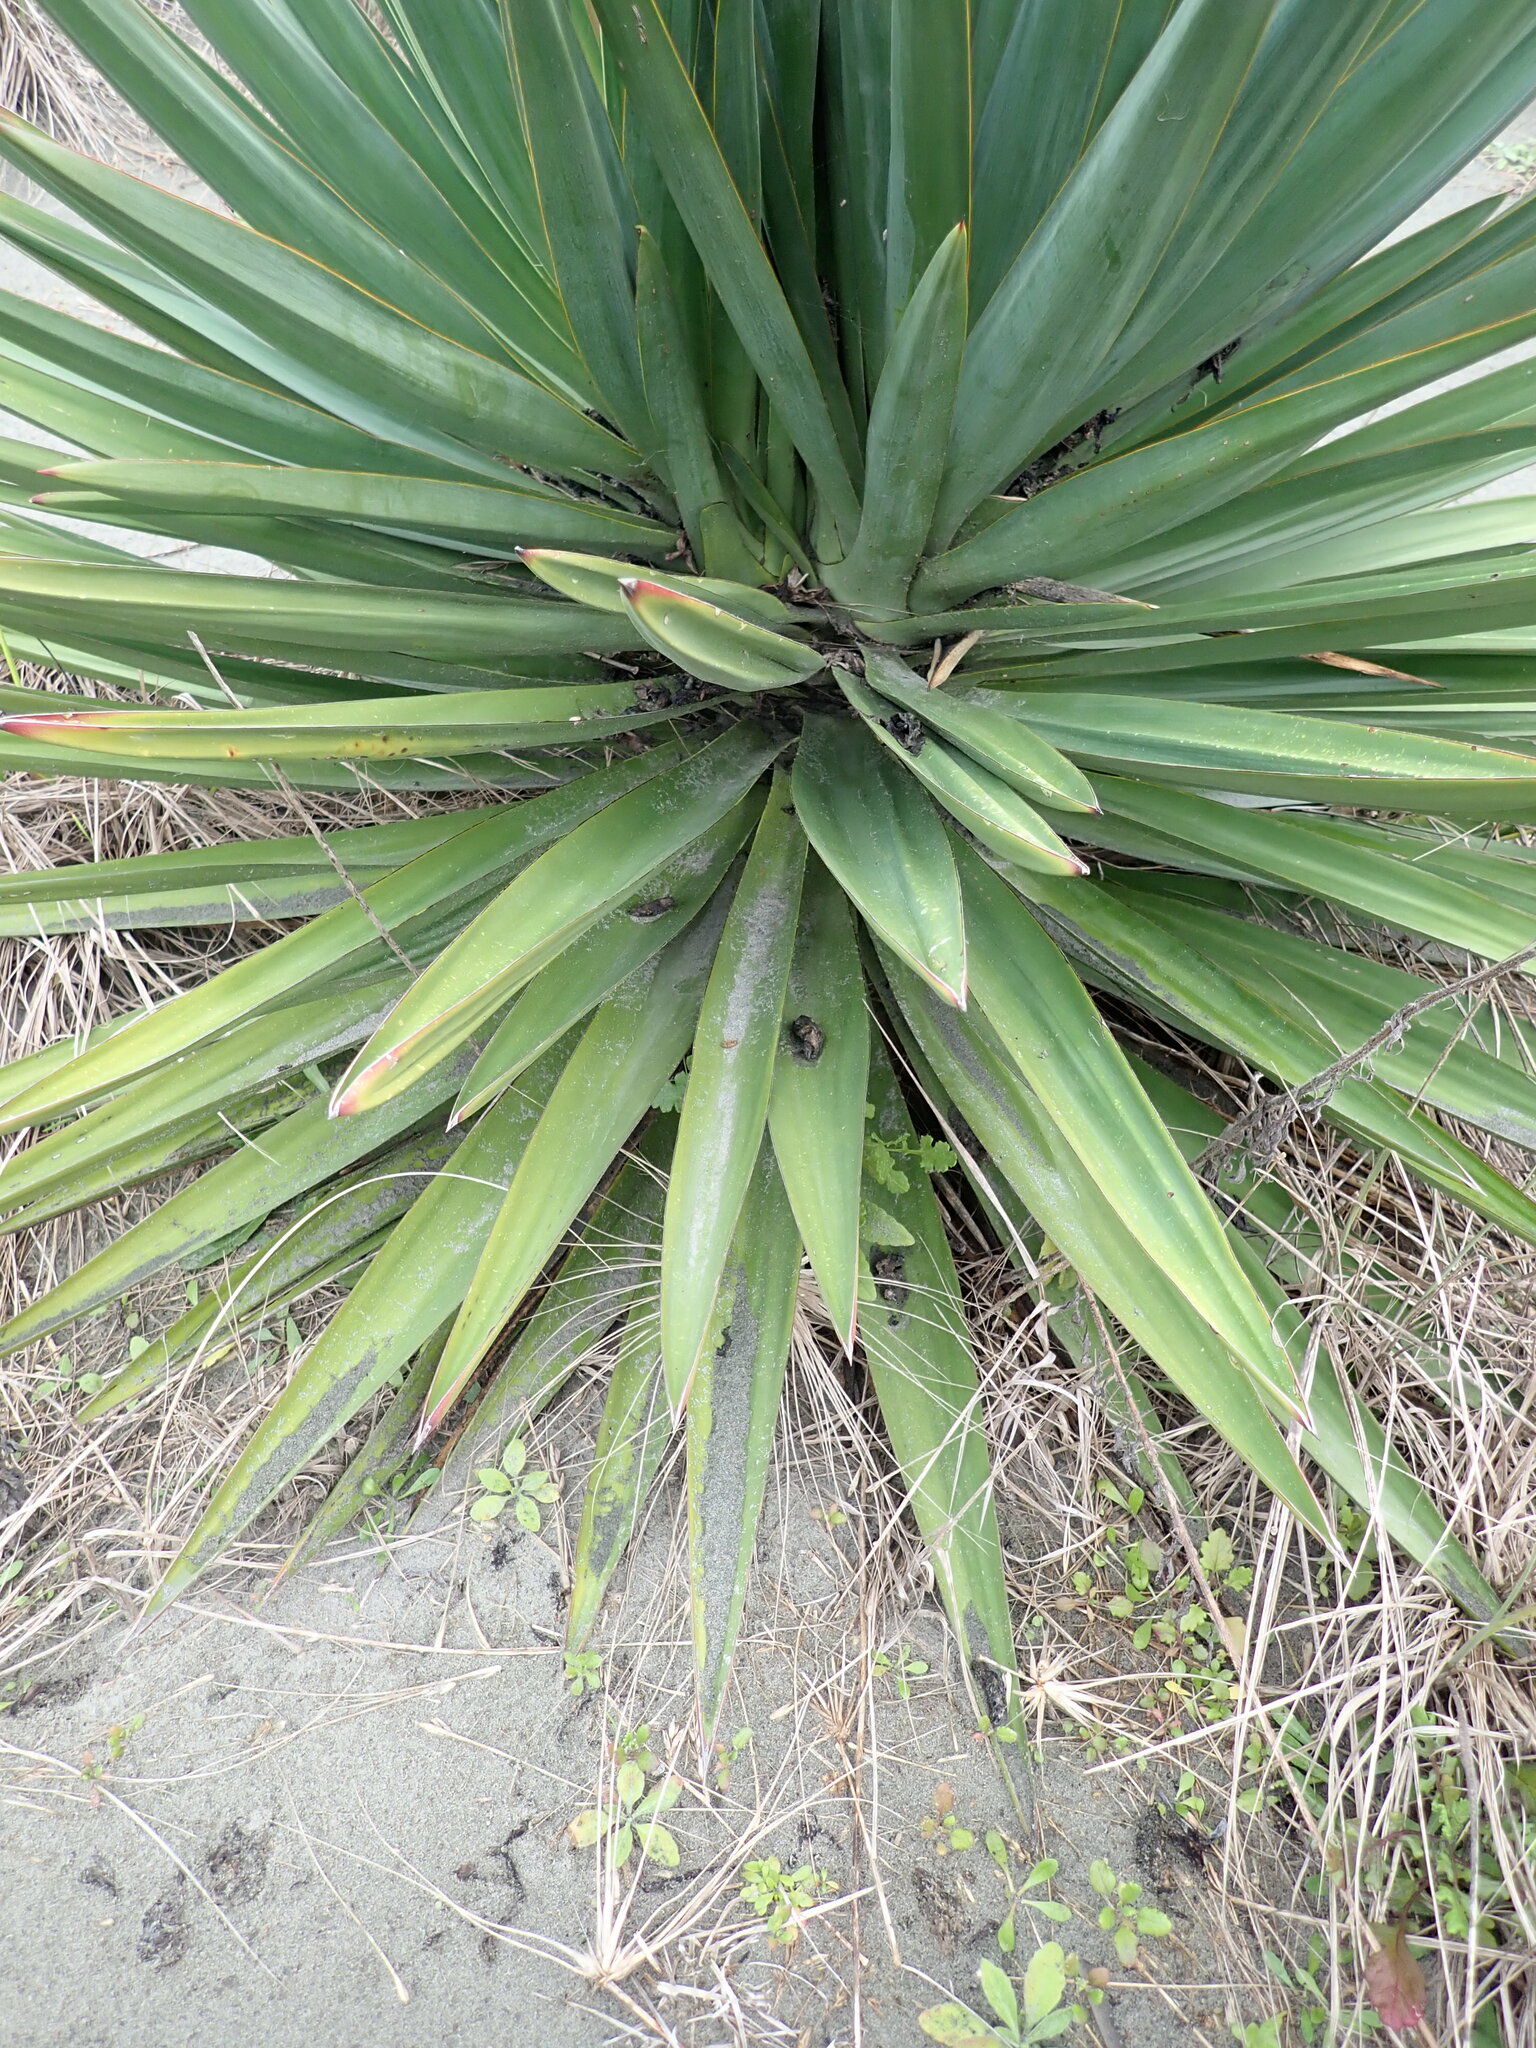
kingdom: Plantae
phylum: Tracheophyta
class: Liliopsida
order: Asparagales
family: Asparagaceae
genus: Yucca
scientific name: Yucca gloriosa
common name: Spanish-dagger
